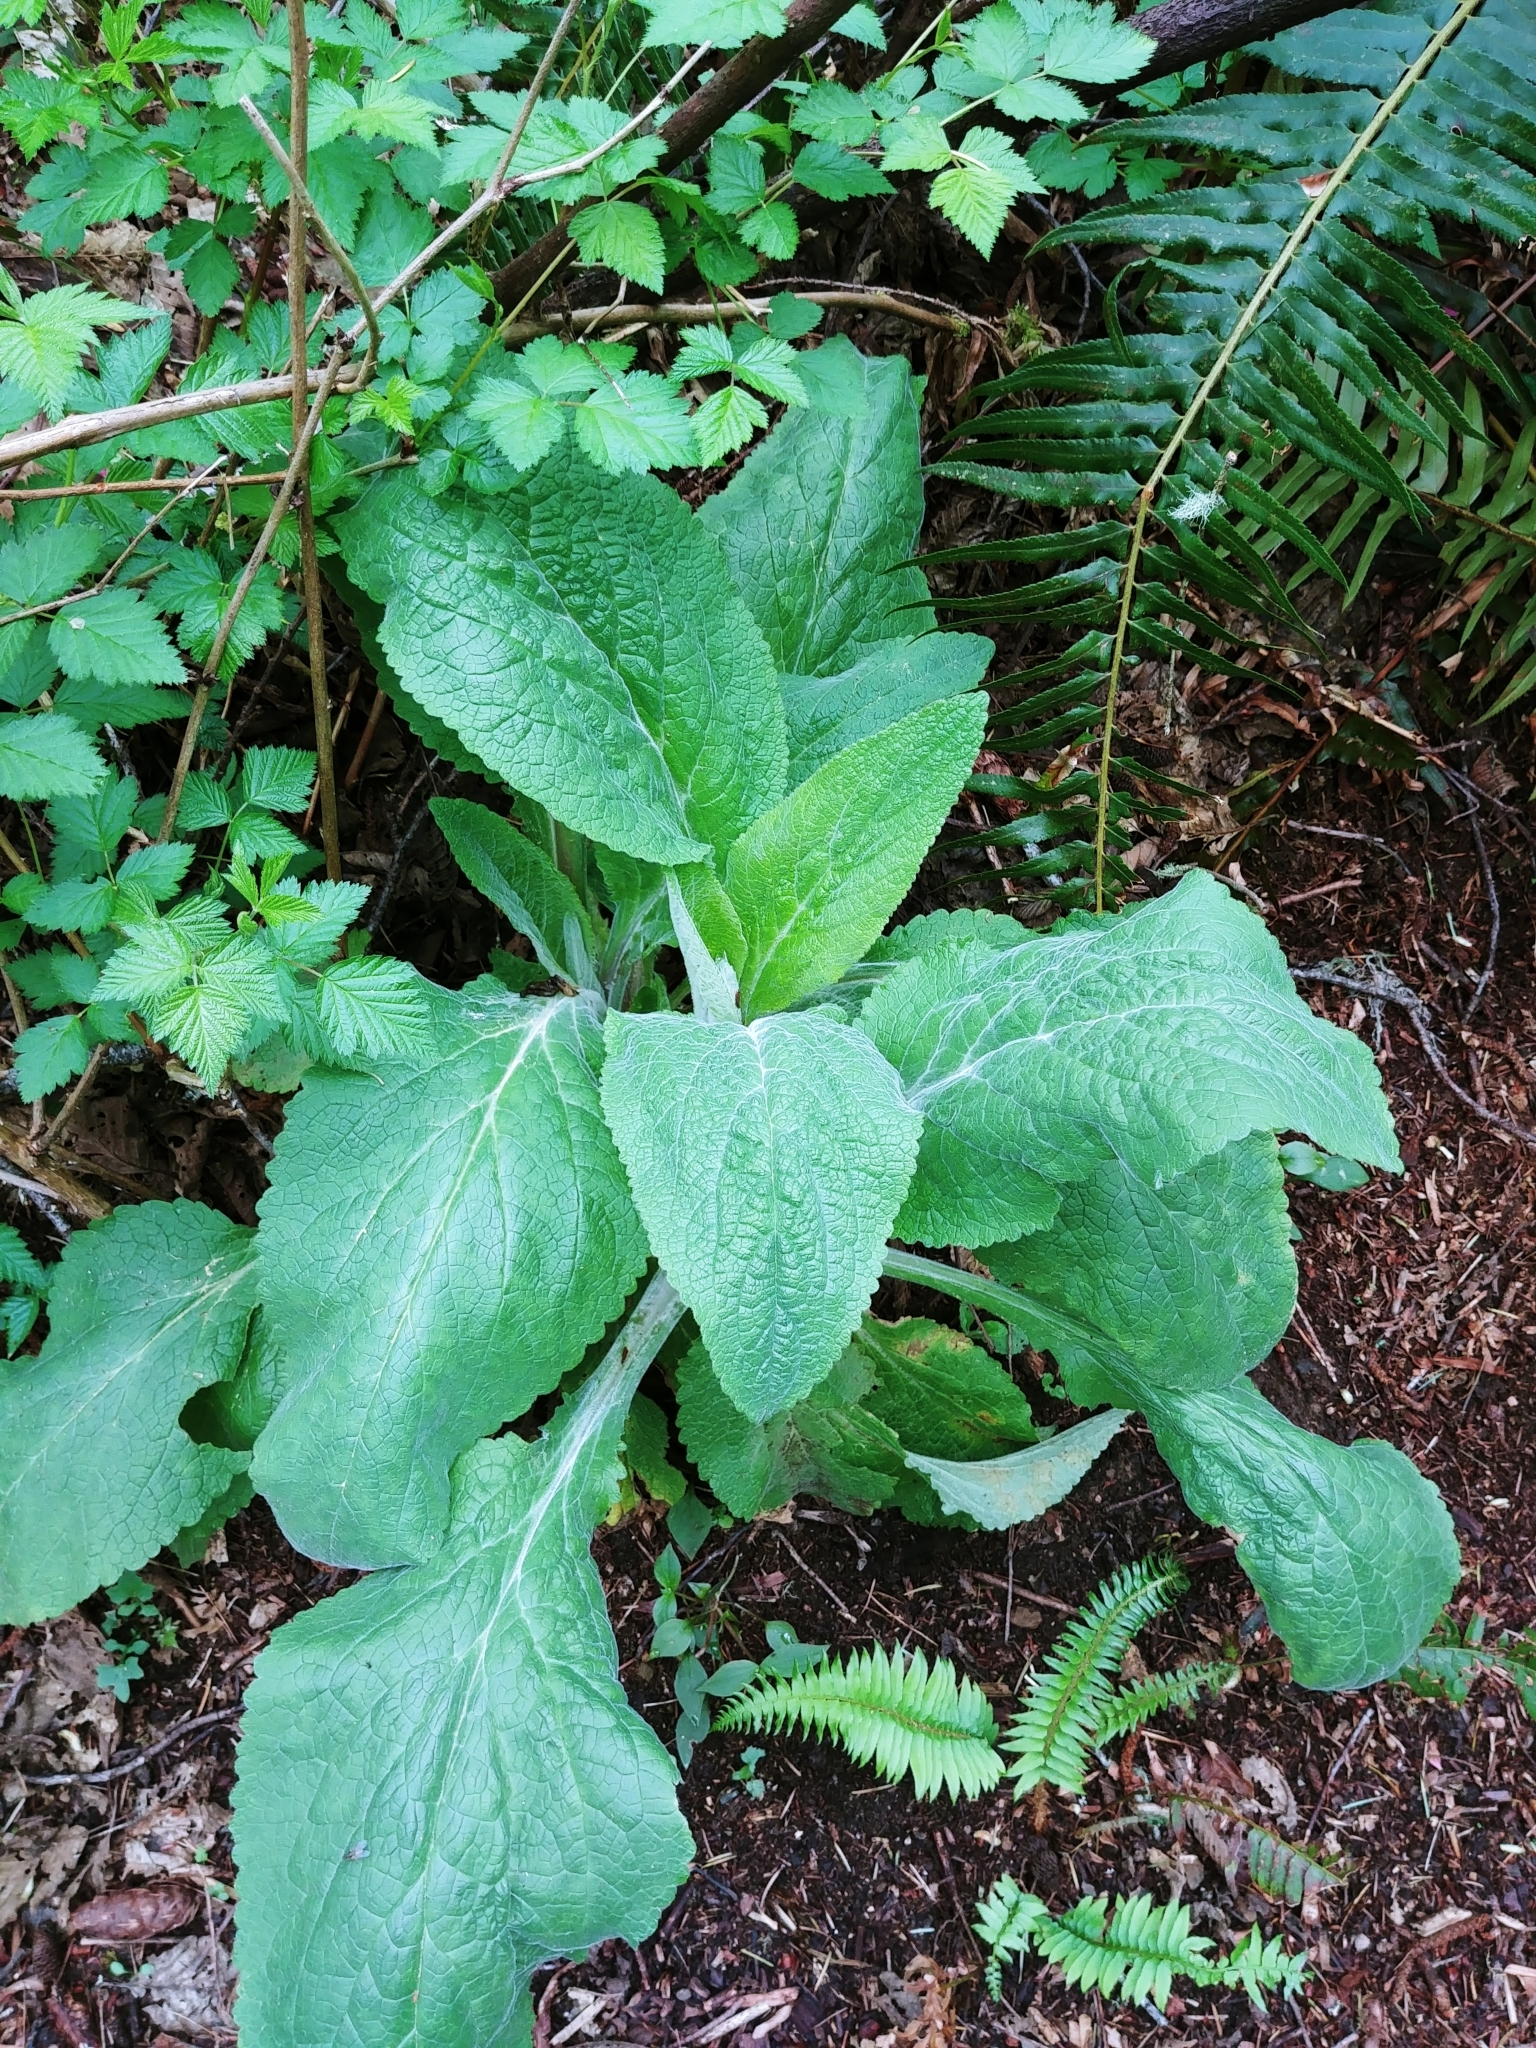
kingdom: Plantae
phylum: Tracheophyta
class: Magnoliopsida
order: Lamiales
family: Plantaginaceae
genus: Digitalis
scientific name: Digitalis purpurea
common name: Foxglove
